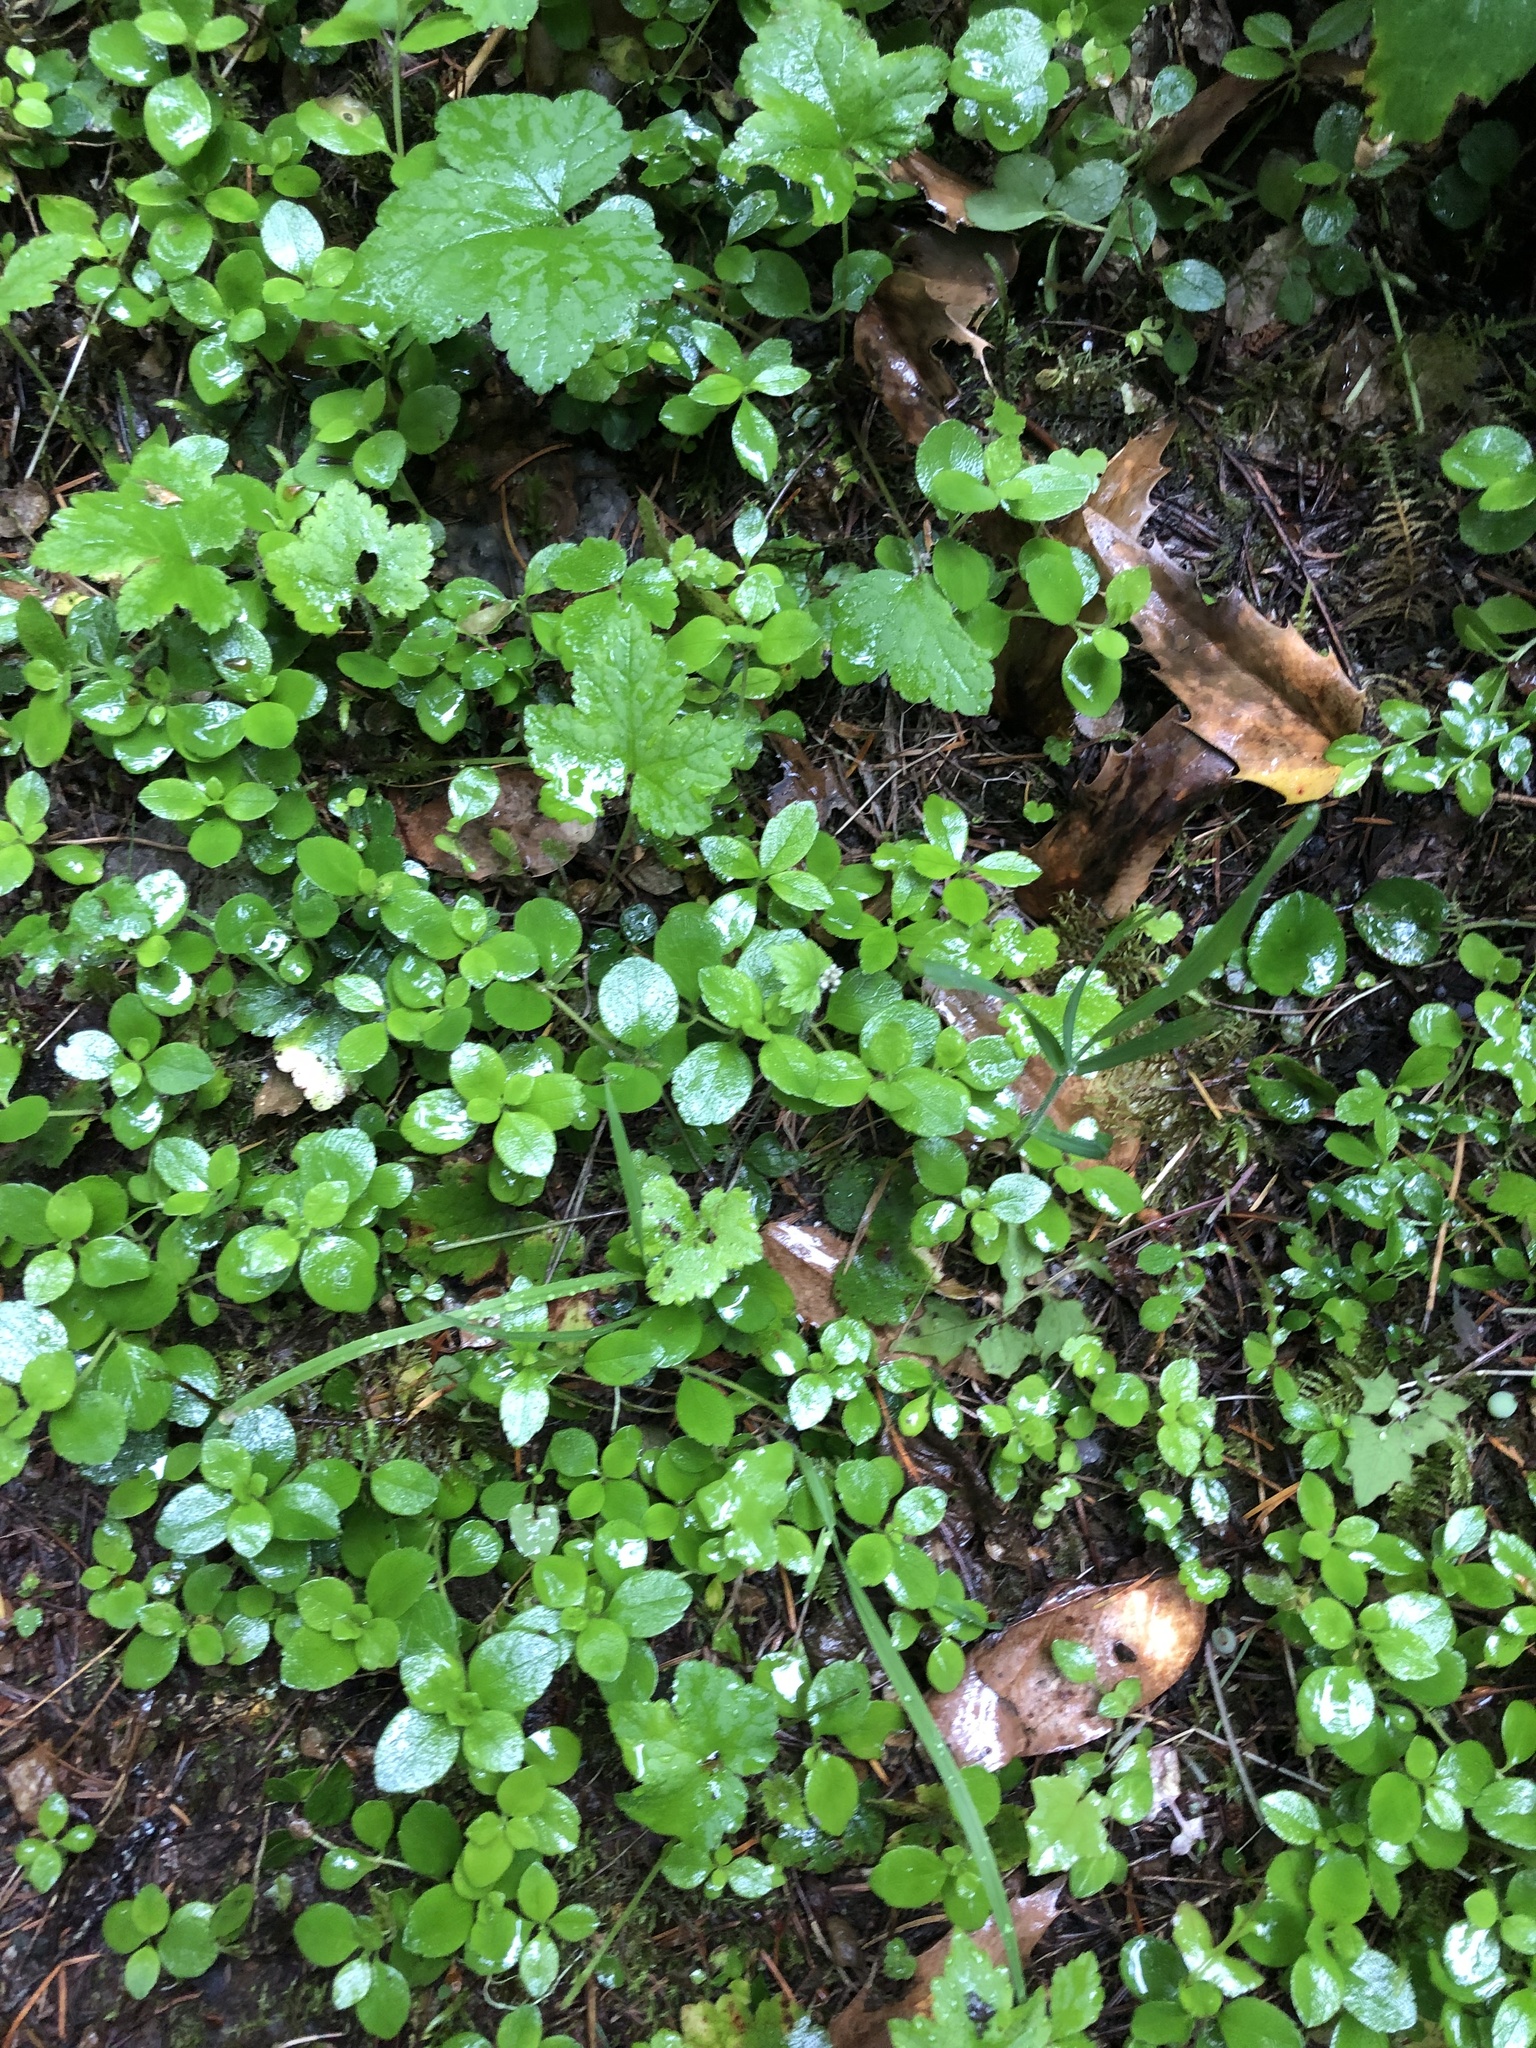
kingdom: Plantae
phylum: Tracheophyta
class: Magnoliopsida
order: Dipsacales
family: Caprifoliaceae
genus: Linnaea
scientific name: Linnaea borealis
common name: Twinflower
